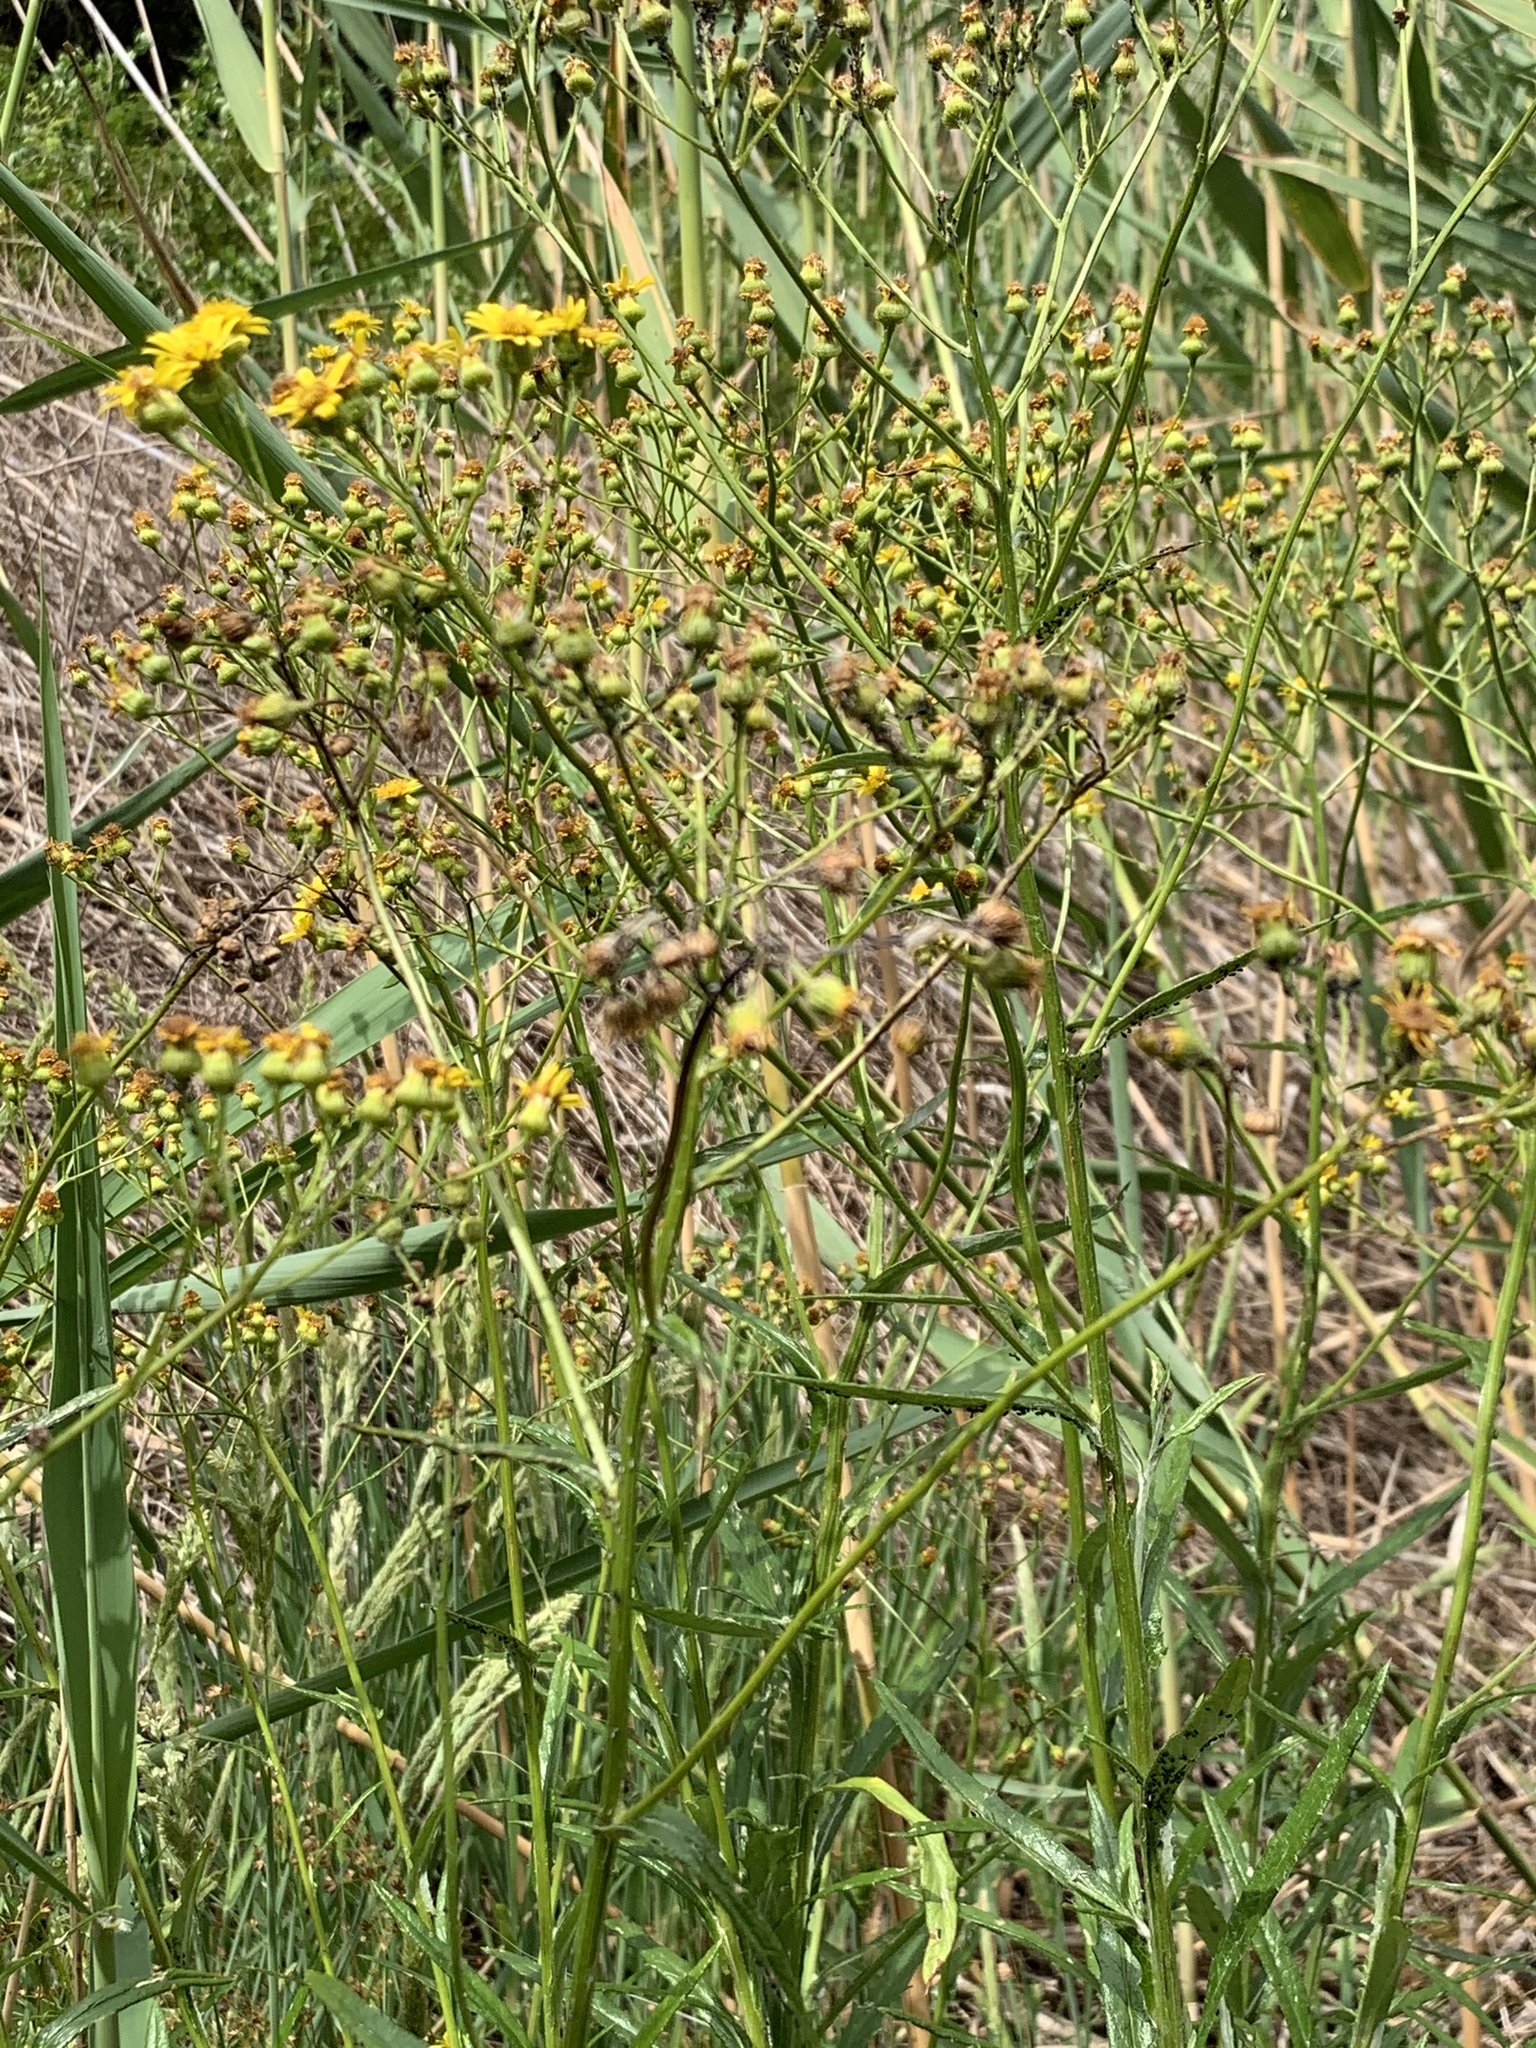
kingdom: Plantae
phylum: Tracheophyta
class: Magnoliopsida
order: Asterales
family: Asteraceae
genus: Senecio
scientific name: Senecio pterophorus
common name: Shoddy ragwort
